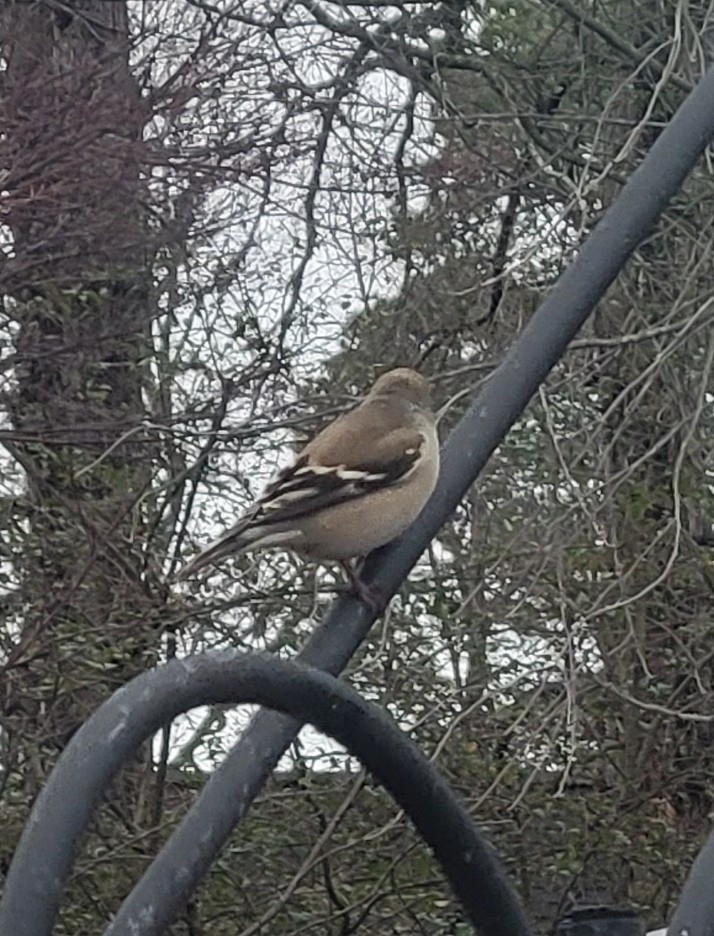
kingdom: Animalia
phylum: Chordata
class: Aves
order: Passeriformes
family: Fringillidae
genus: Spinus
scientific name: Spinus tristis
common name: American goldfinch
